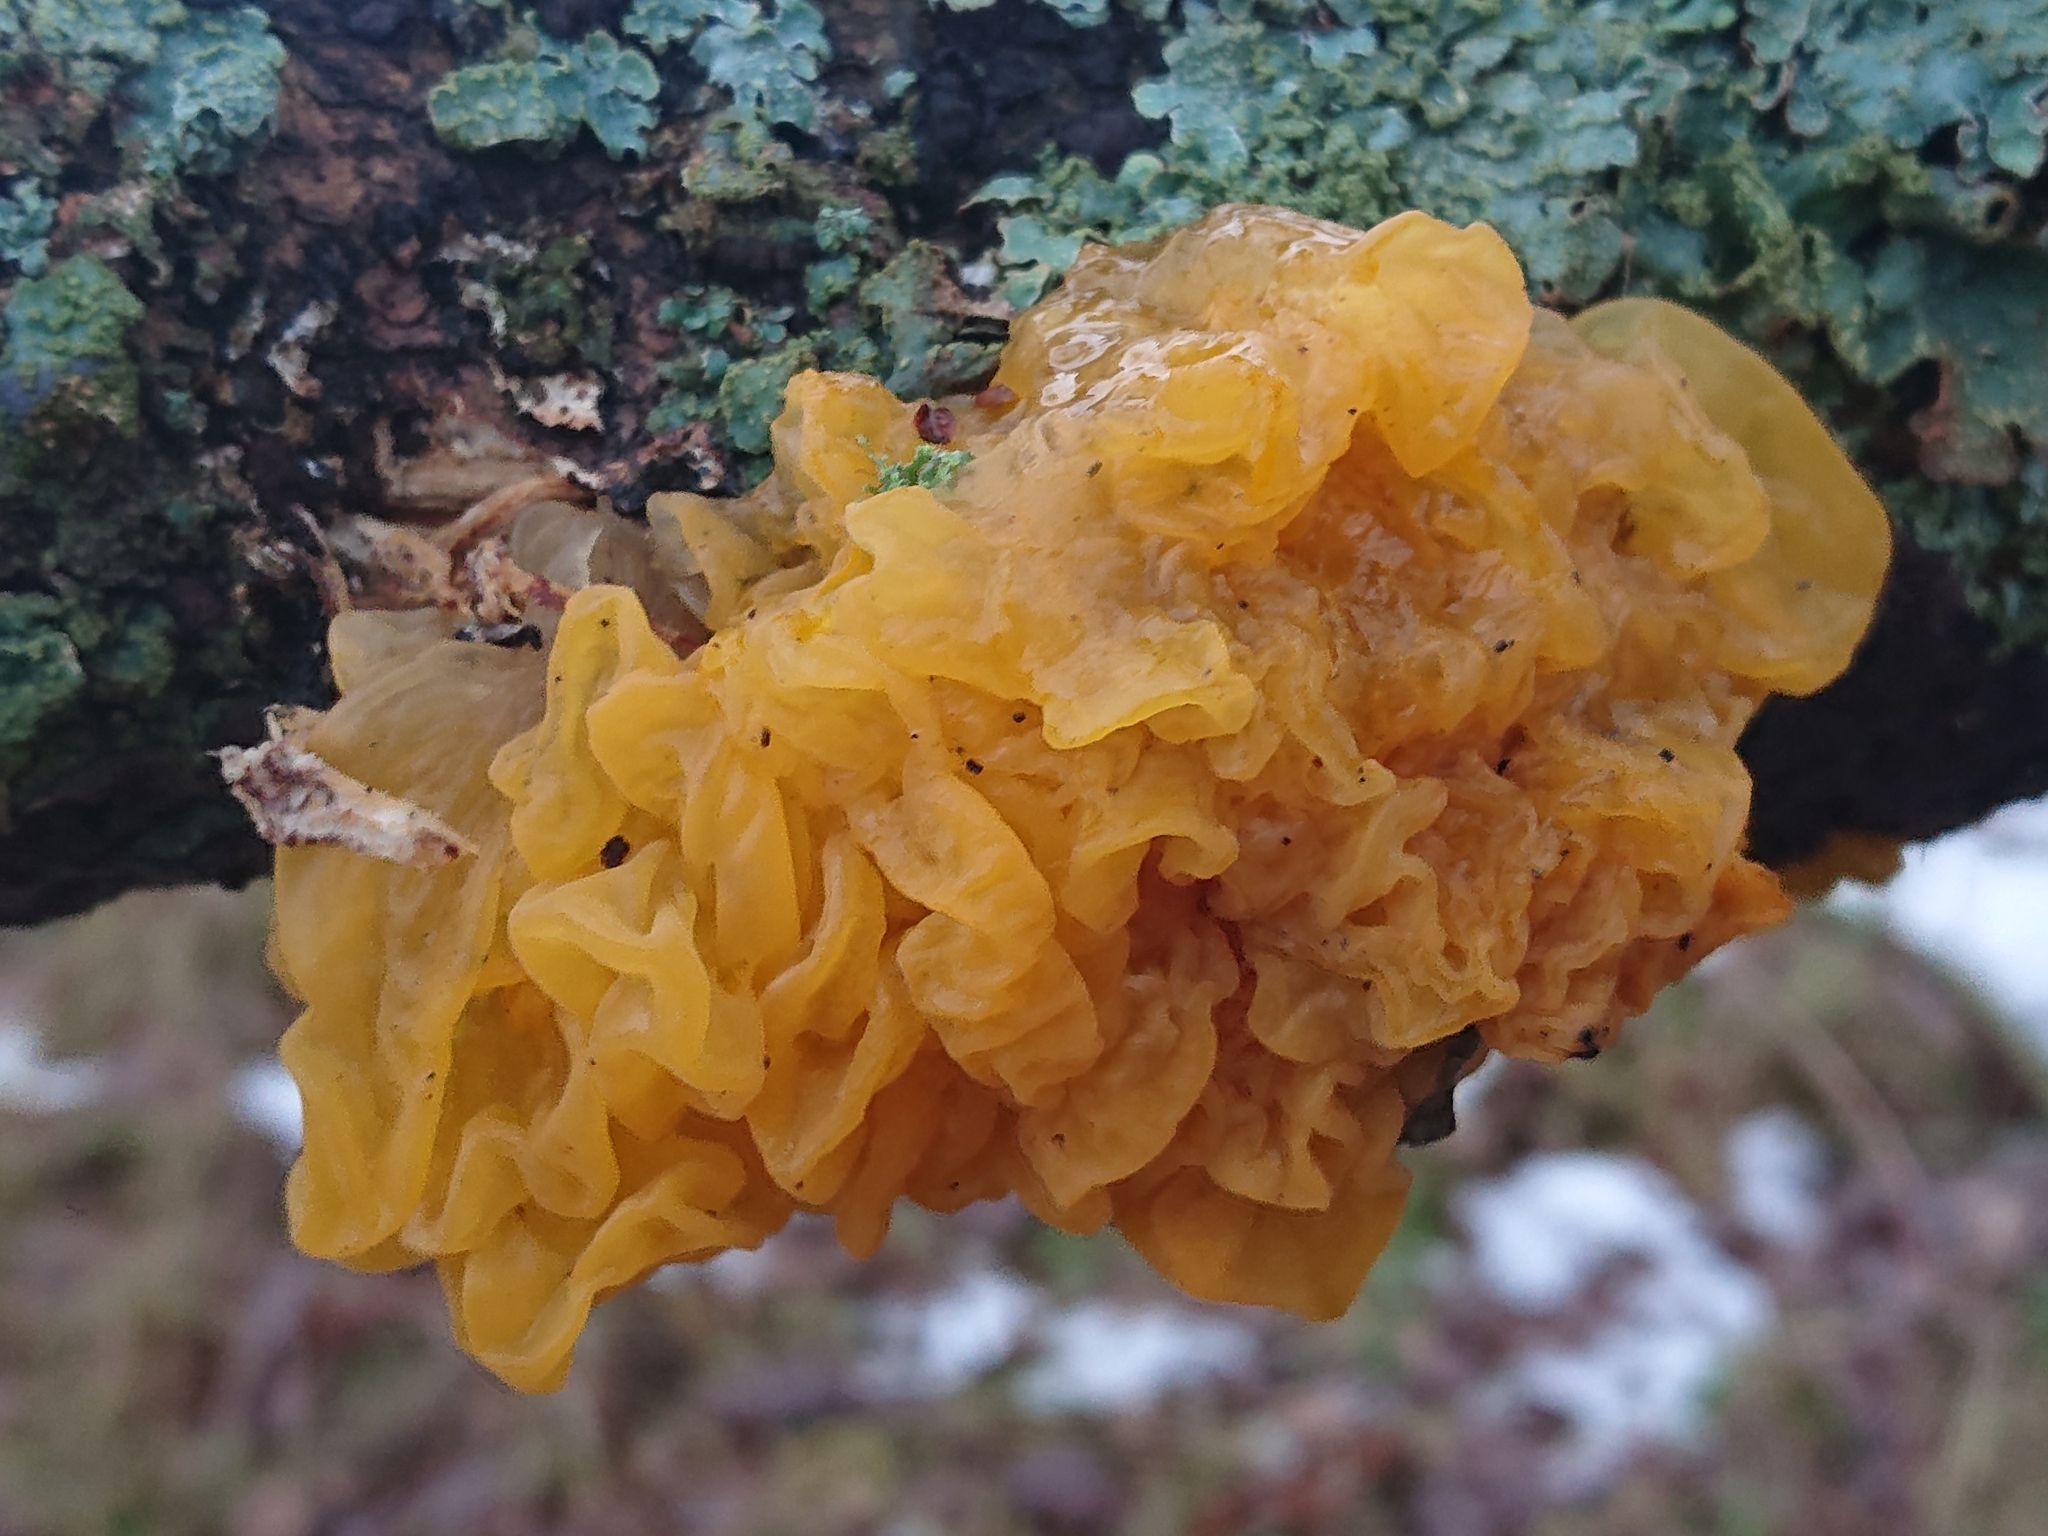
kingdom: Fungi
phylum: Basidiomycota
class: Tremellomycetes
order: Tremellales
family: Tremellaceae
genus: Tremella
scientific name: Tremella mesenterica
